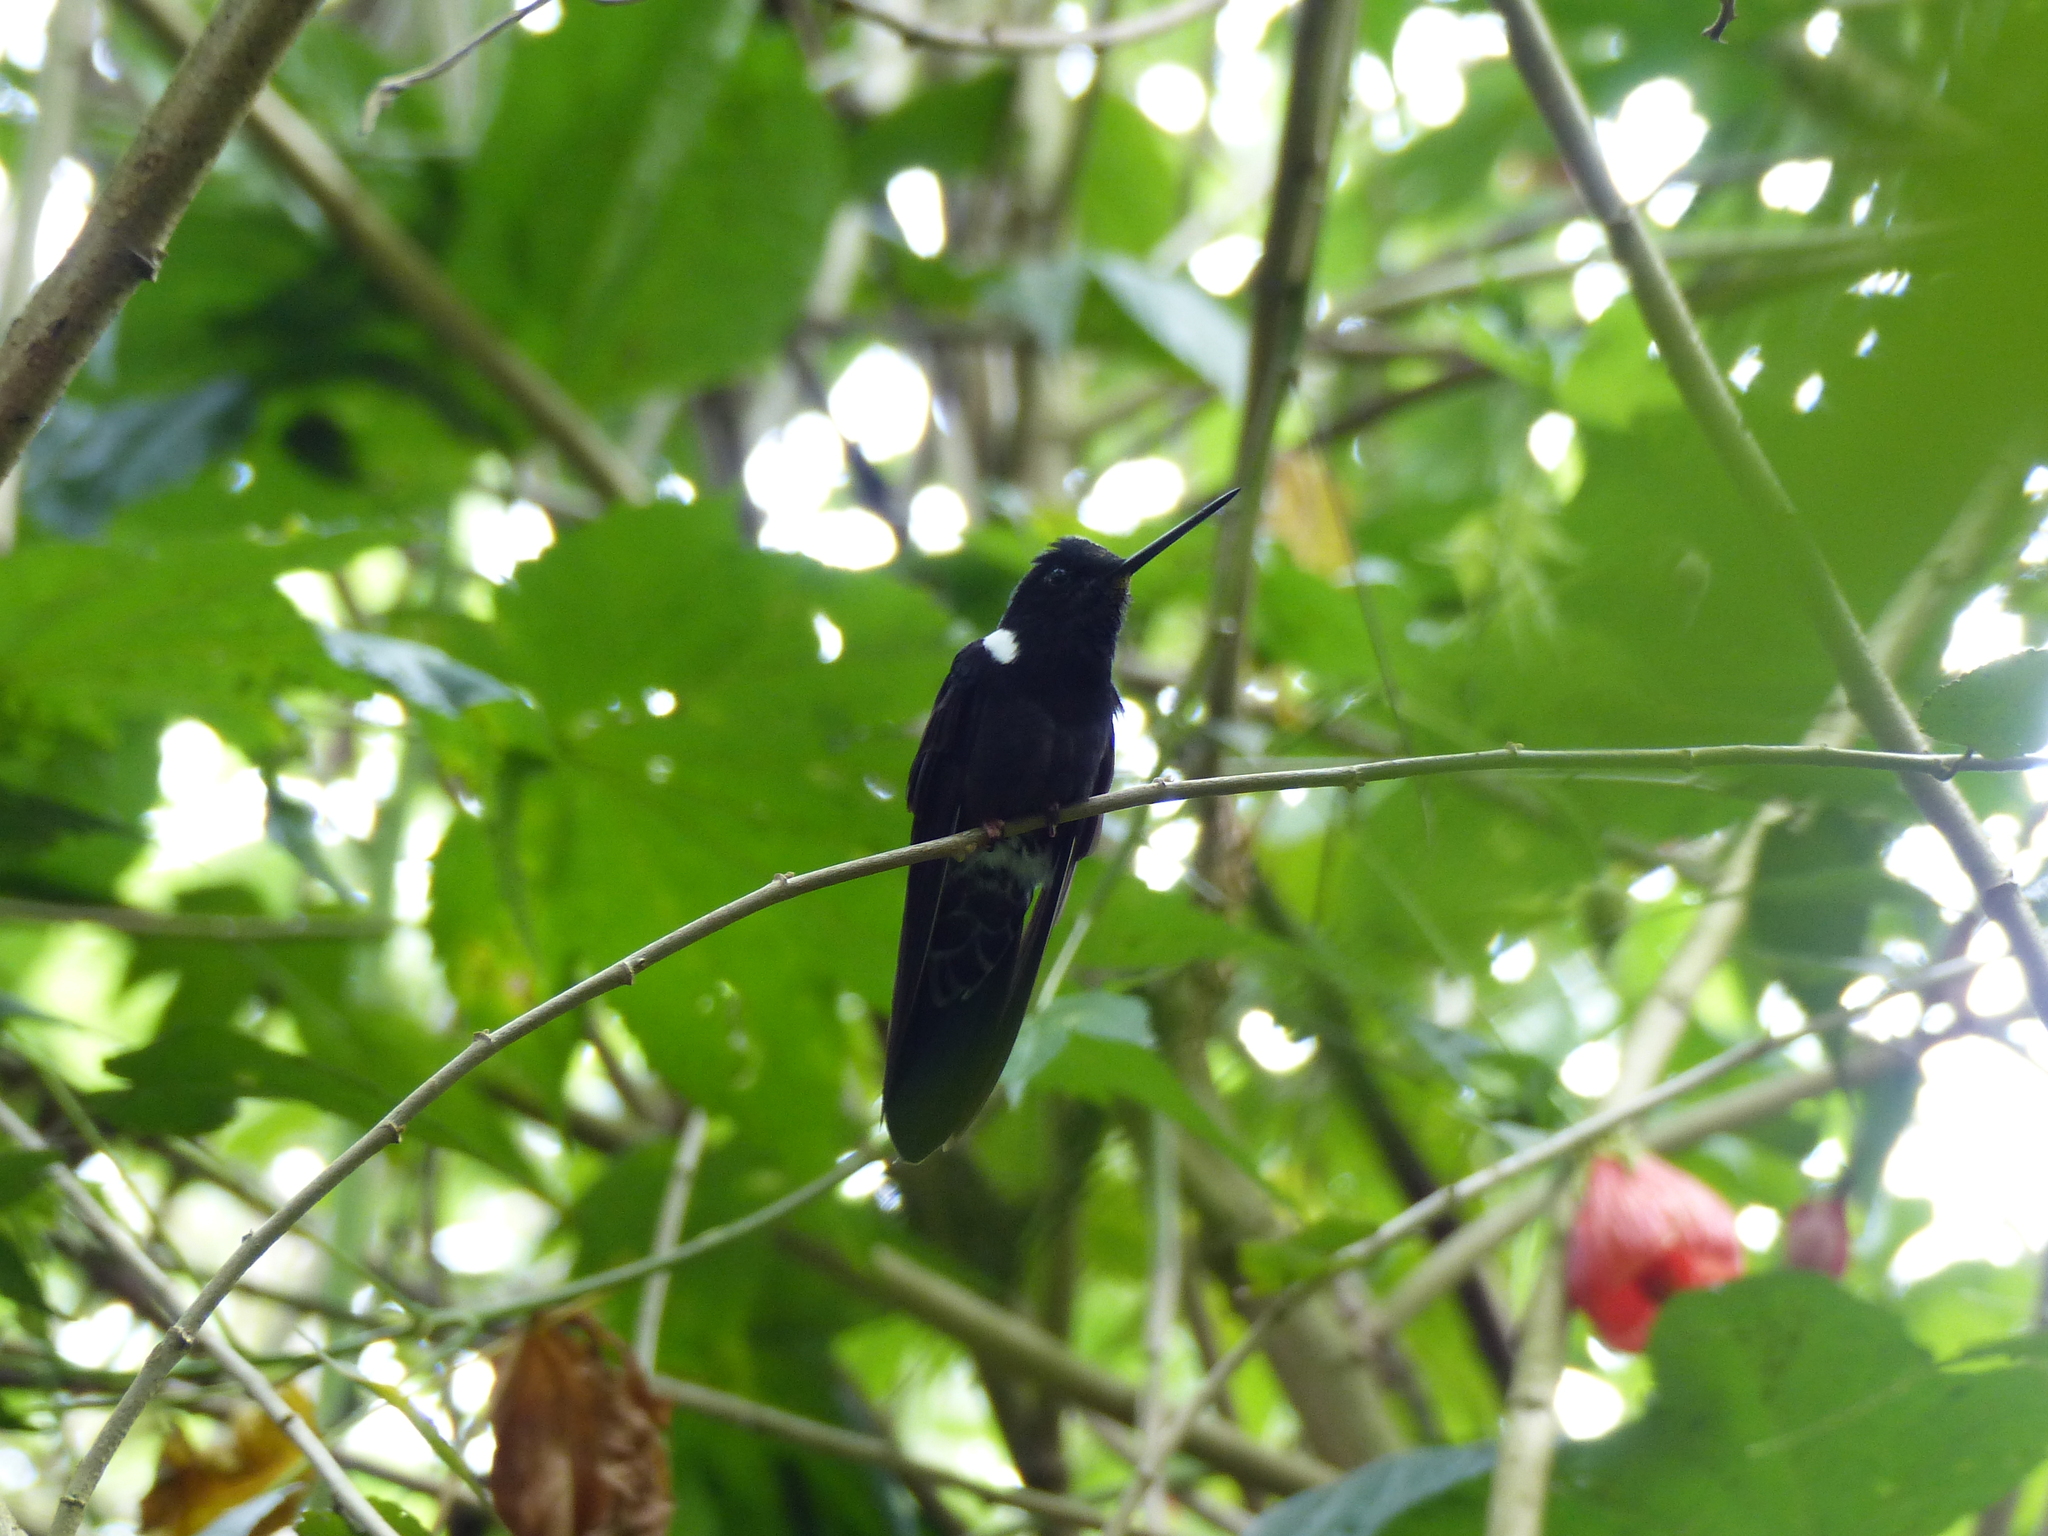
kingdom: Animalia
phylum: Chordata
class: Aves
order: Apodiformes
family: Trochilidae
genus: Coeligena
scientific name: Coeligena prunellei
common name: Black inca
